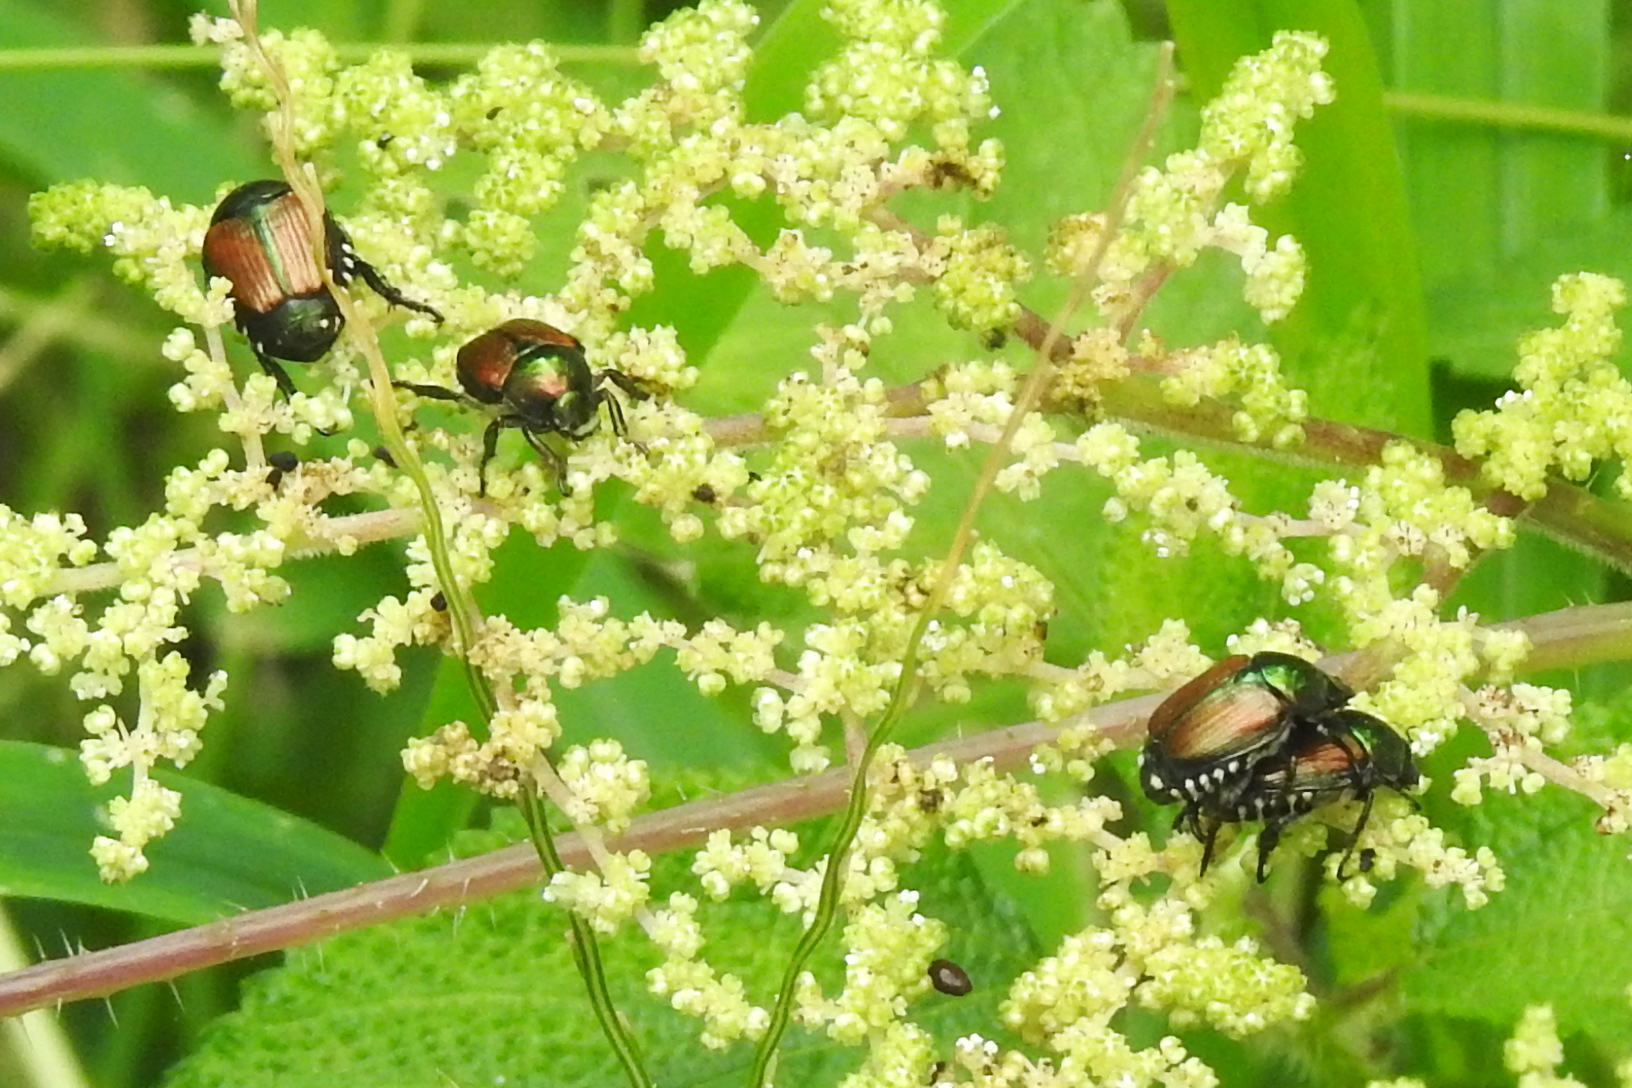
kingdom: Animalia
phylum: Arthropoda
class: Insecta
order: Coleoptera
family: Scarabaeidae
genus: Popillia
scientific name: Popillia japonica
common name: Japanese beetle
